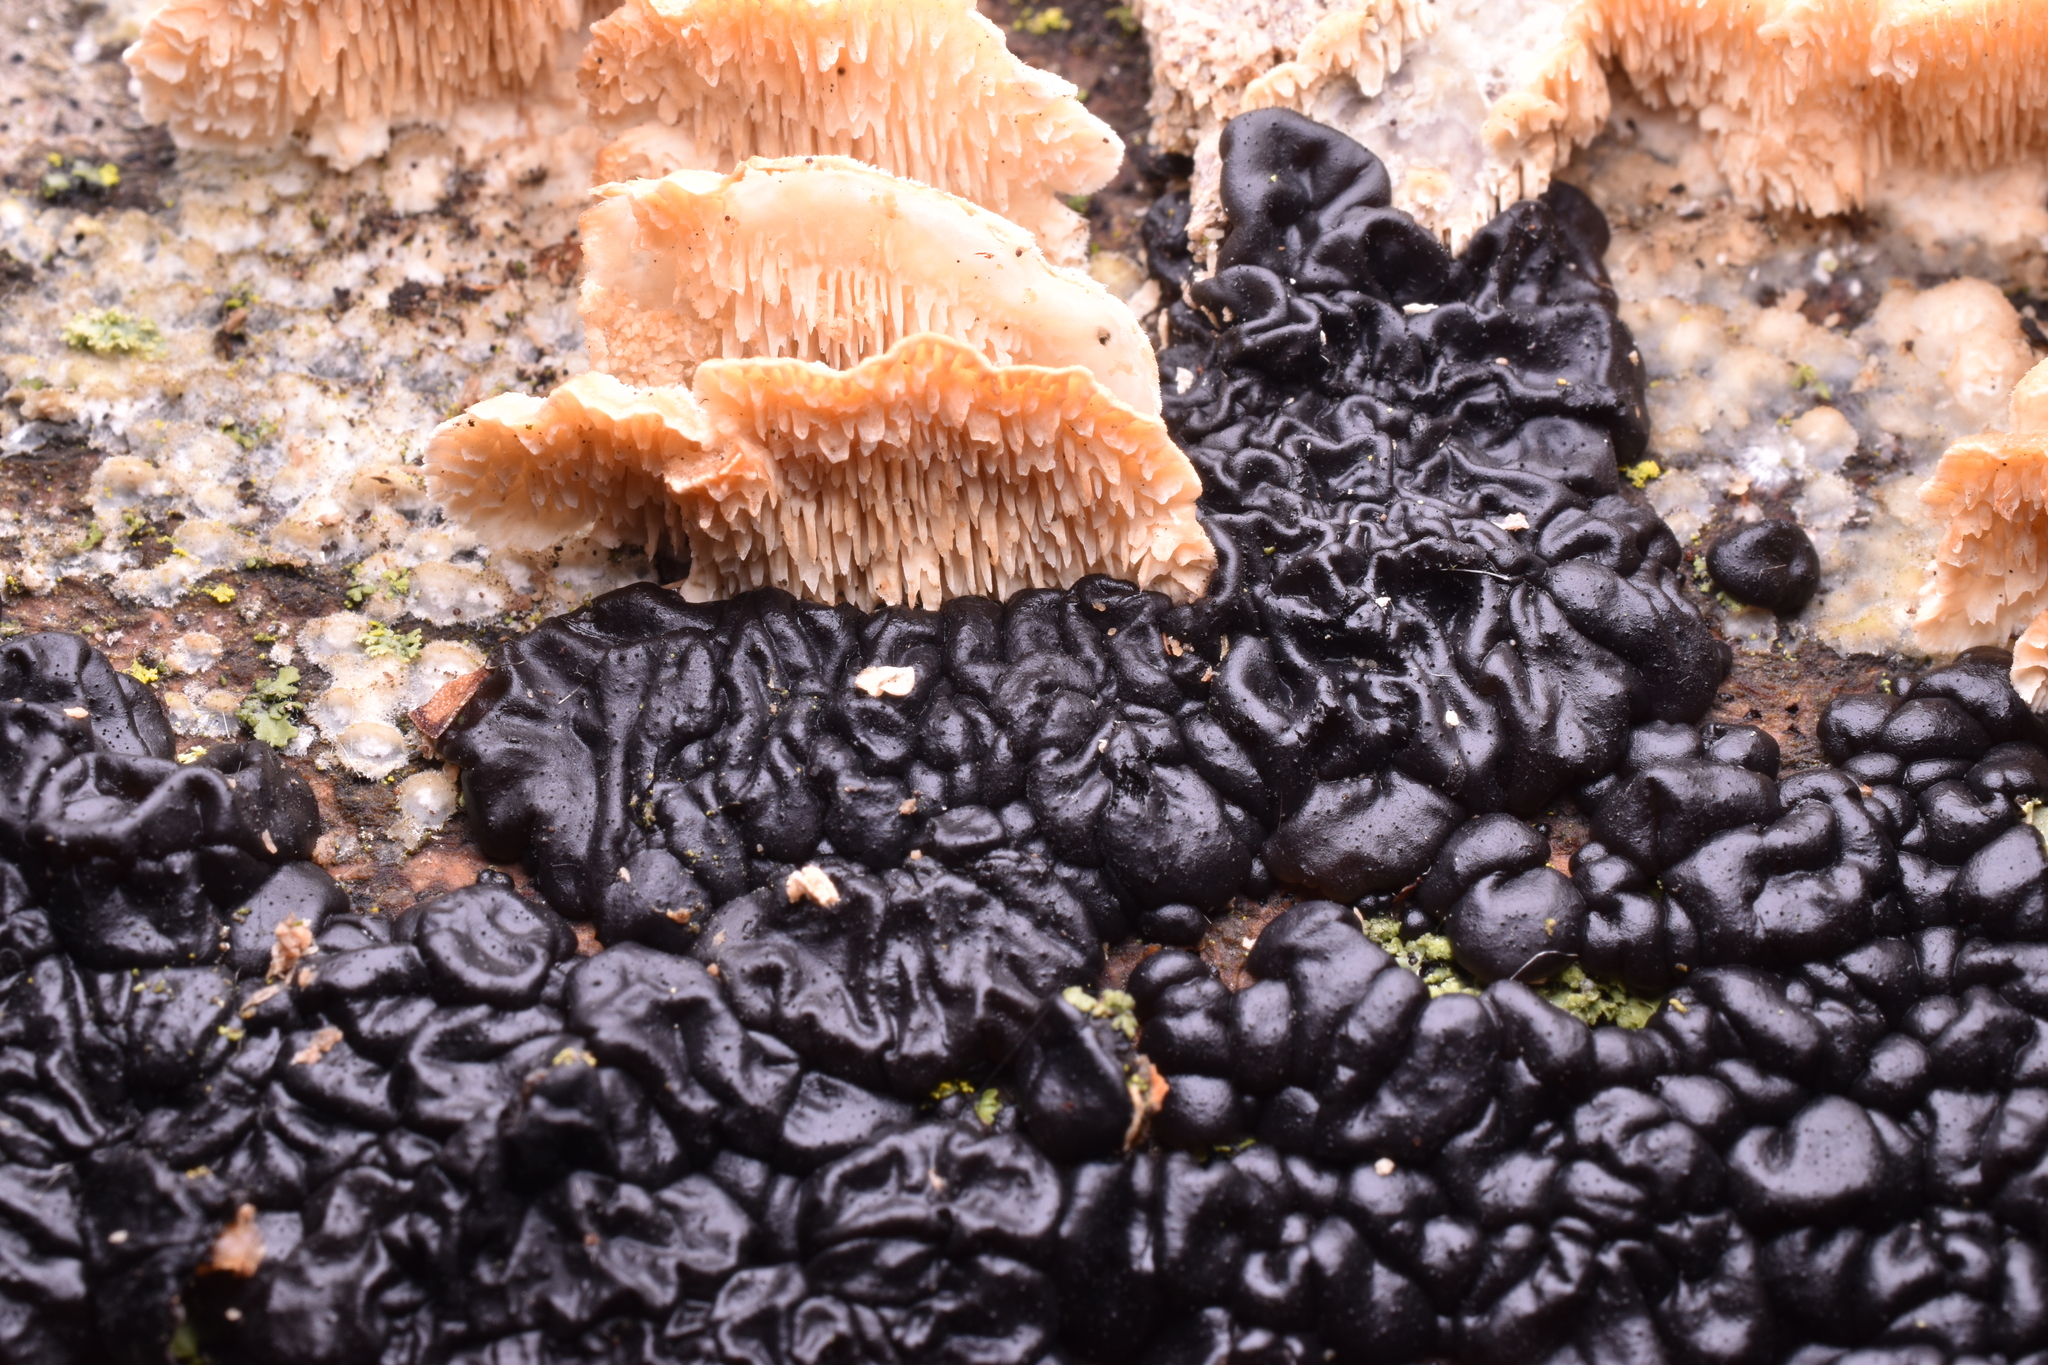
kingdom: Fungi
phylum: Basidiomycota
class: Agaricomycetes
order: Auriculariales
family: Auriculariaceae
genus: Exidia
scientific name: Exidia nigricans
